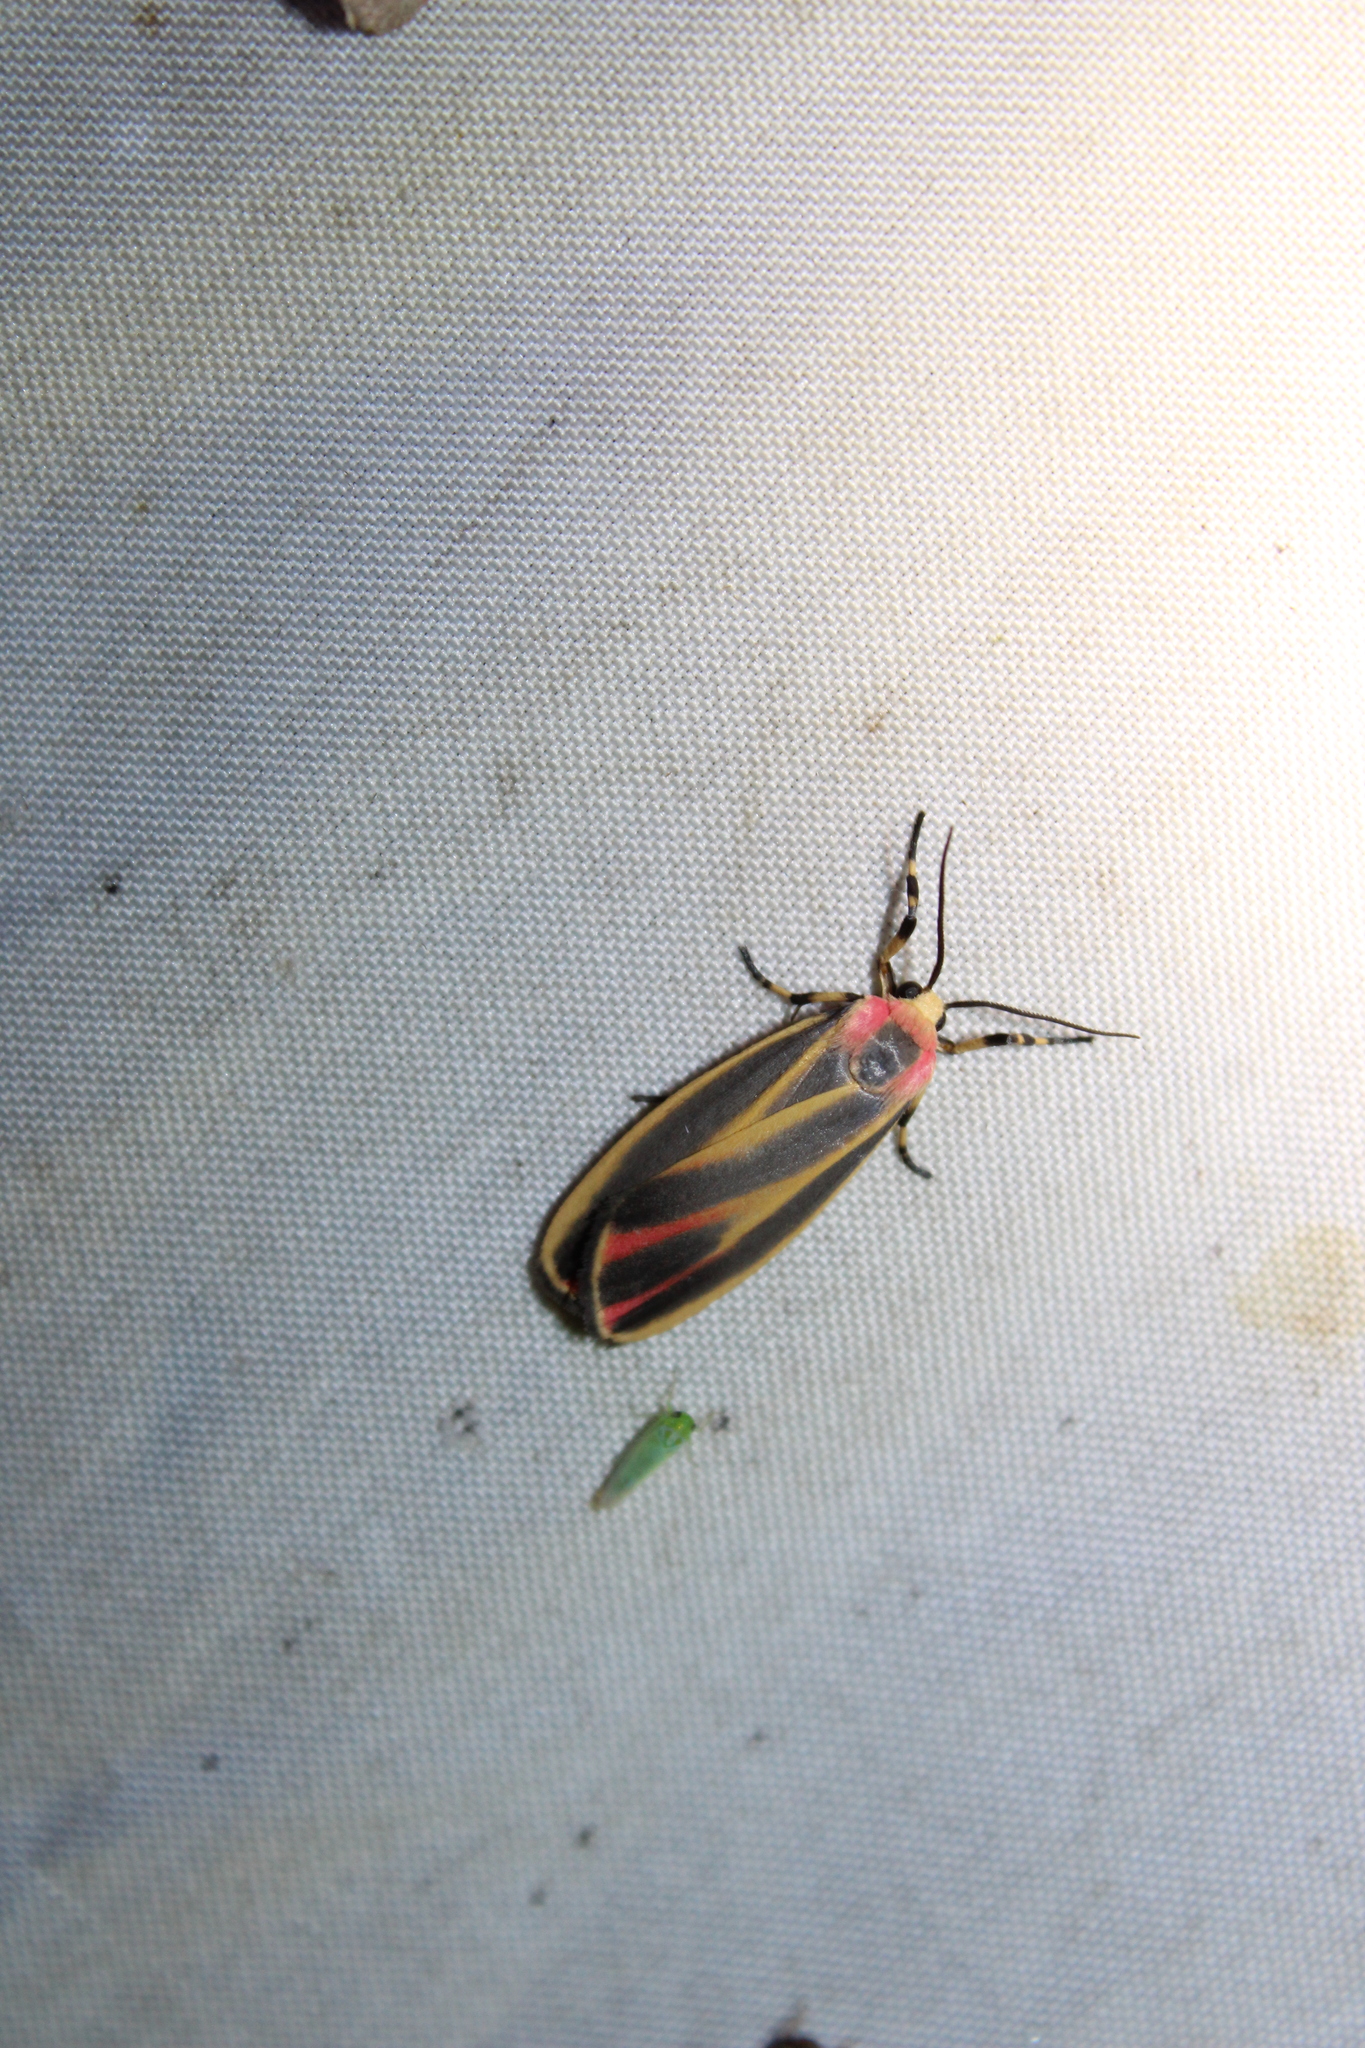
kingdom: Animalia
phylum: Arthropoda
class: Insecta
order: Lepidoptera
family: Erebidae
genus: Hypoprepia
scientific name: Hypoprepia fucosa
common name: Painted lichen moth
